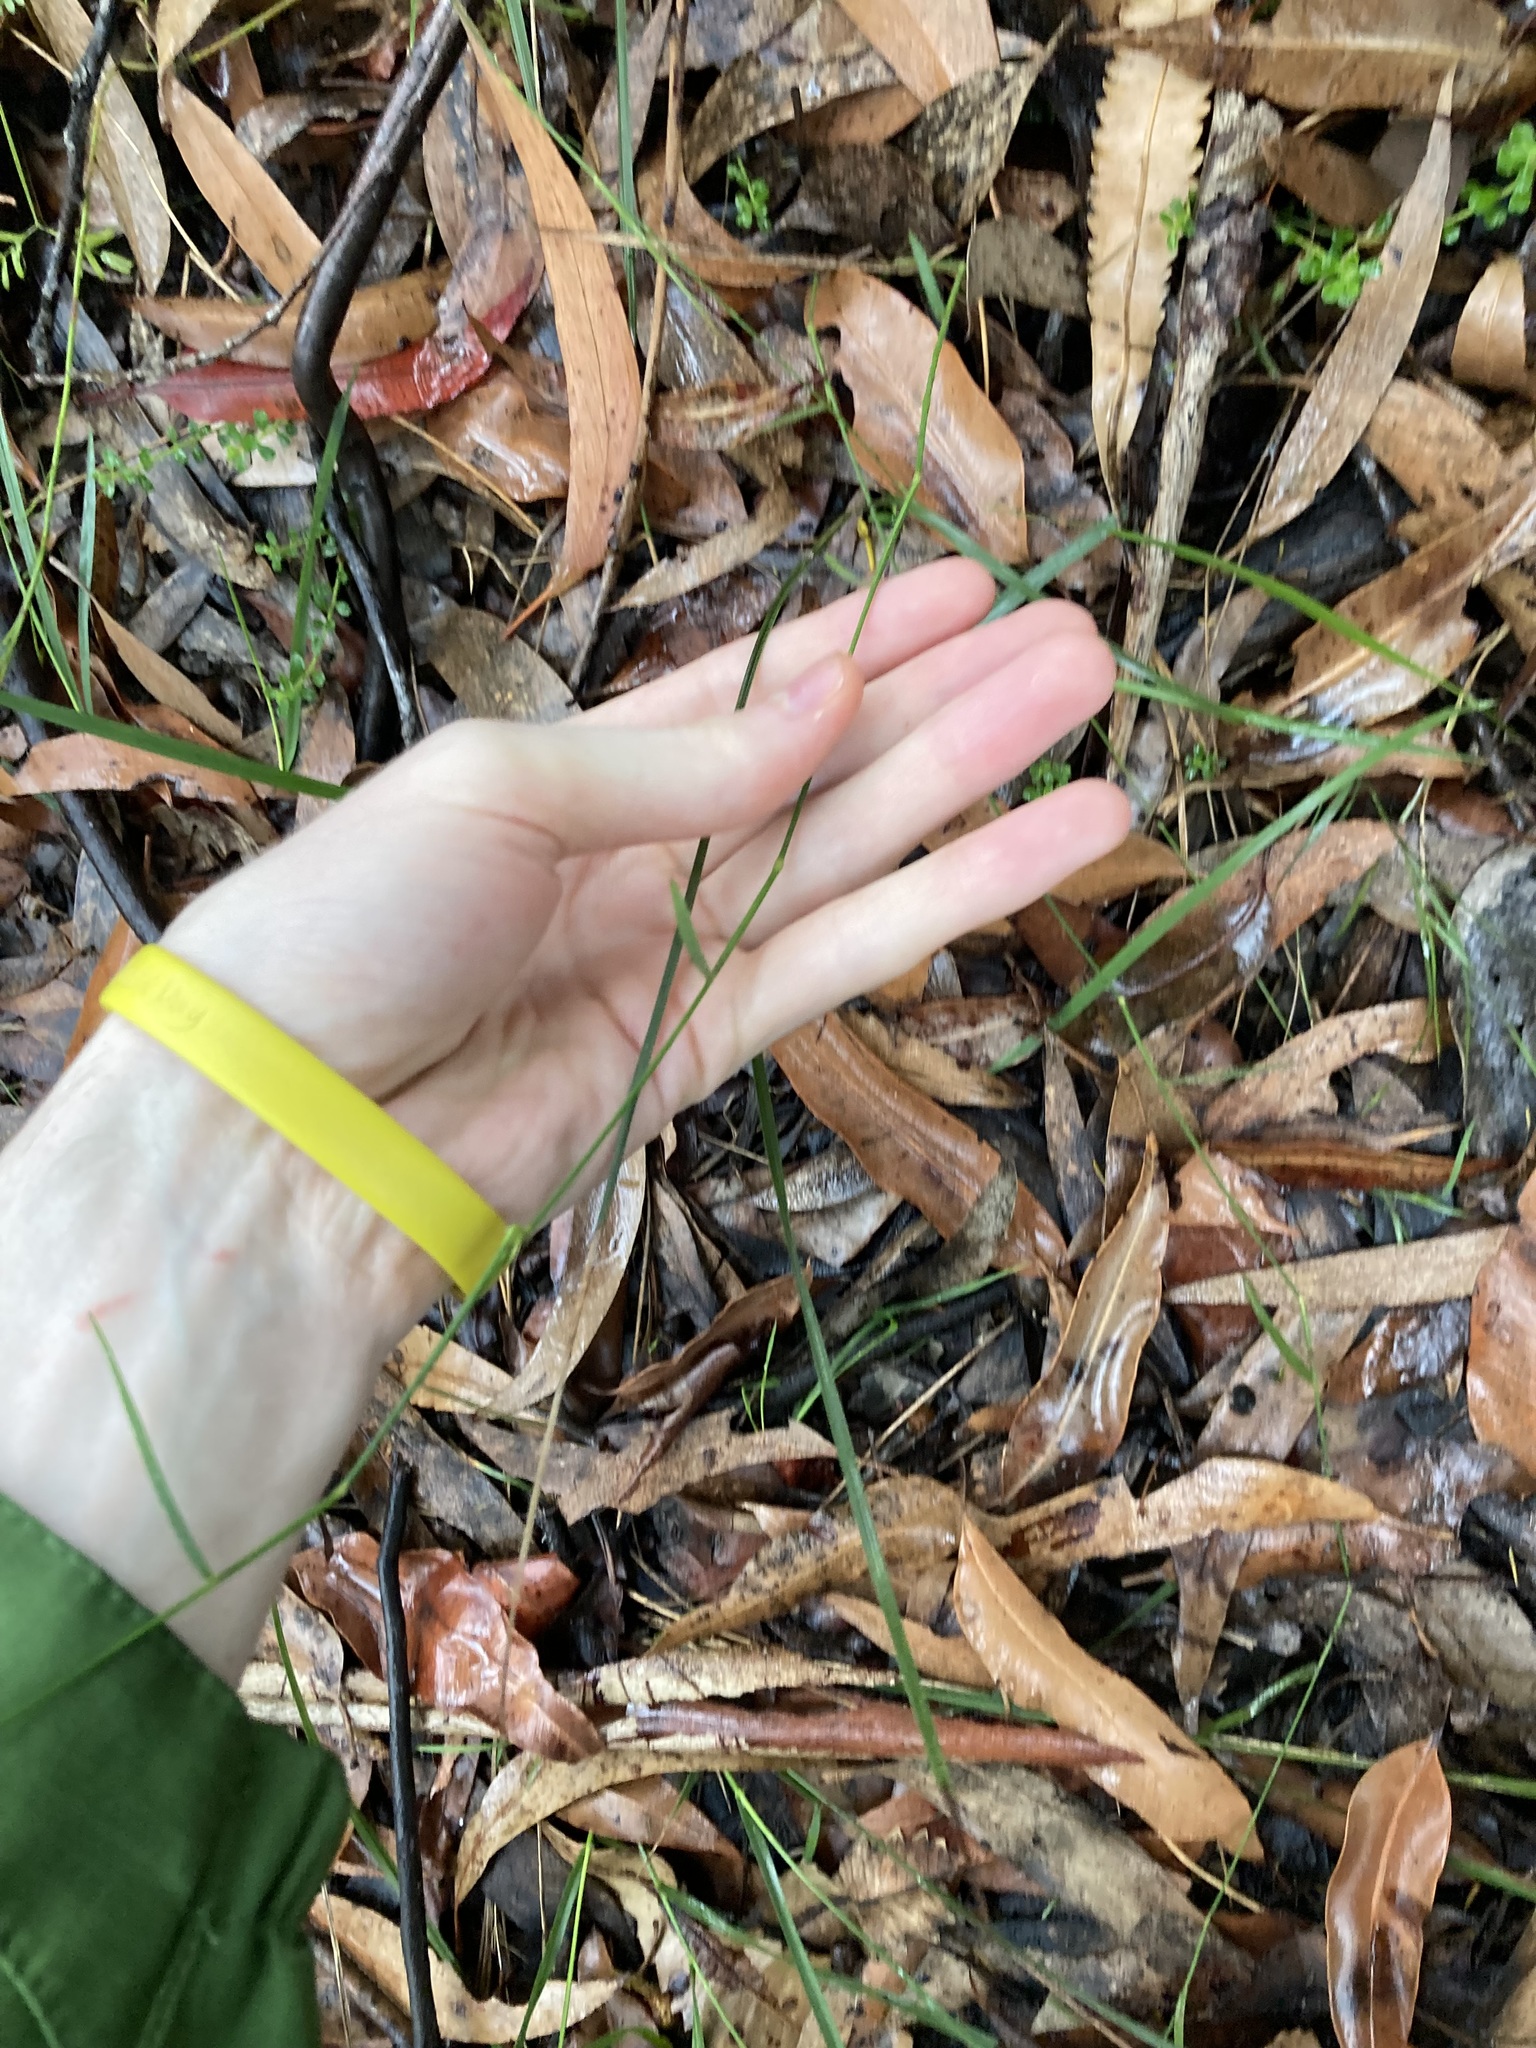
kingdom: Plantae
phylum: Tracheophyta
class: Liliopsida
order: Poales
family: Poaceae
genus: Entolasia
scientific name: Entolasia stricta
